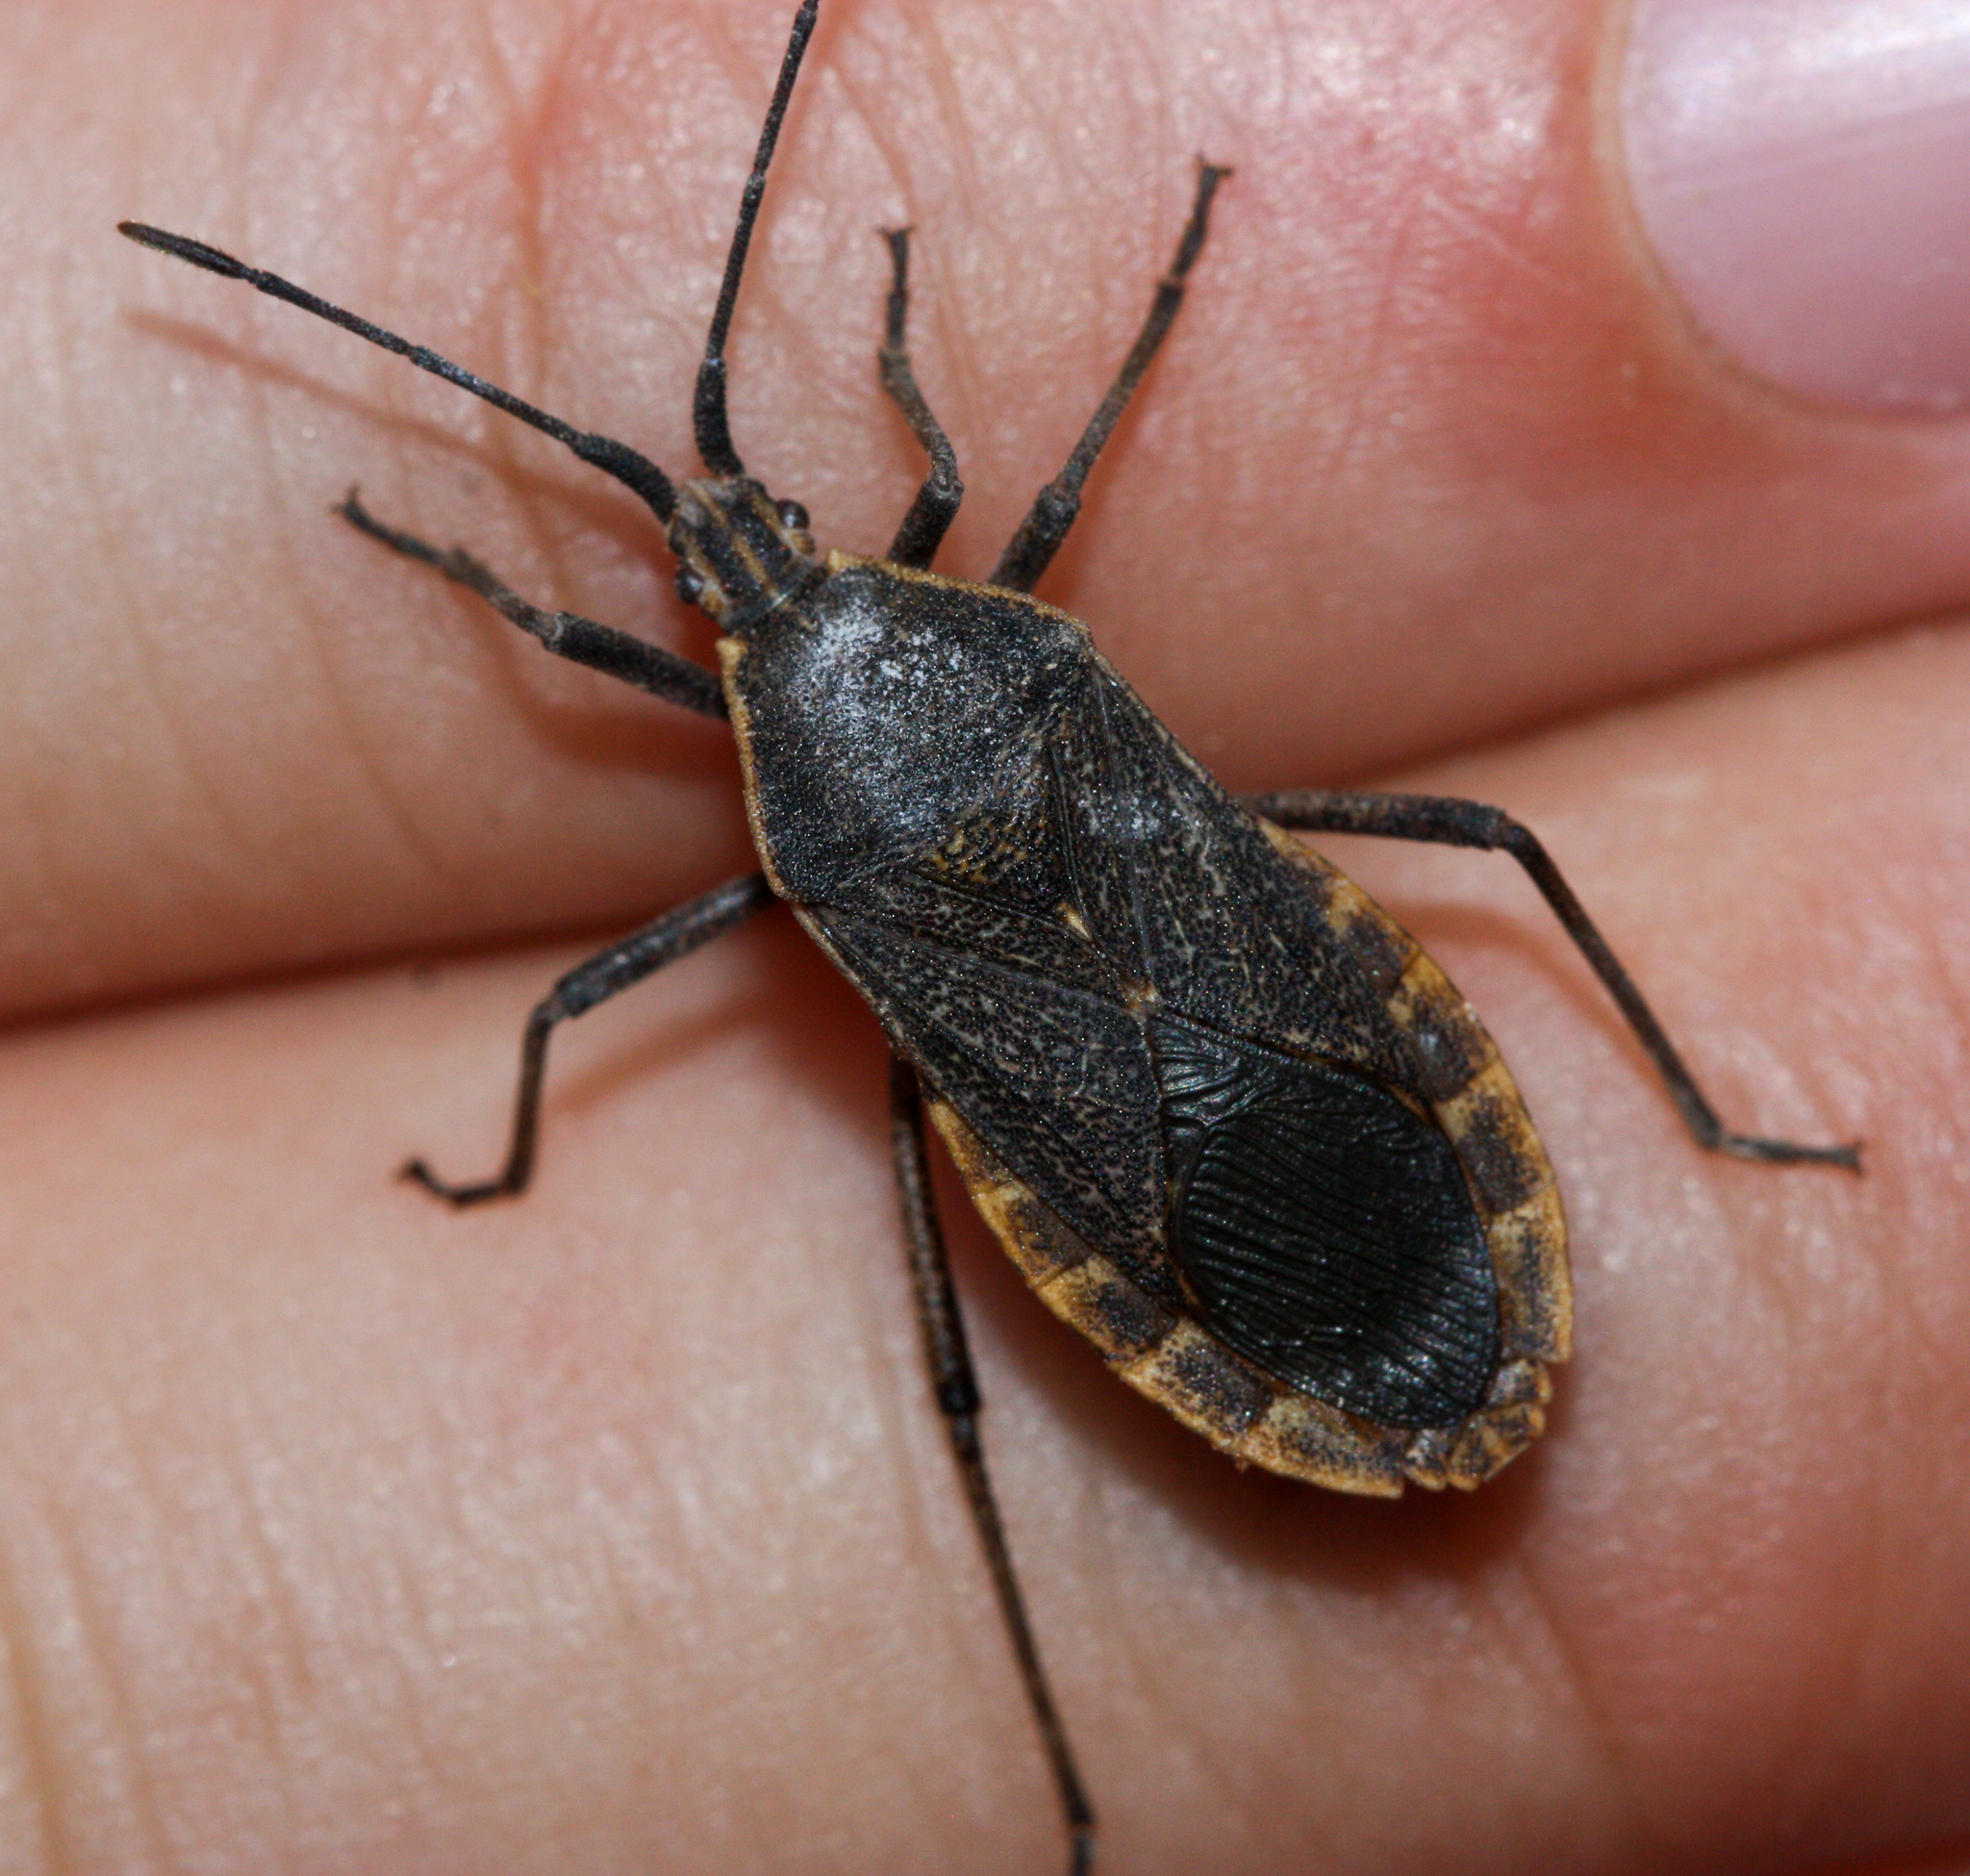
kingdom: Animalia
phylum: Arthropoda
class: Insecta
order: Hemiptera
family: Coreidae
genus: Anasa
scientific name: Anasa tristis
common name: Squash bug
